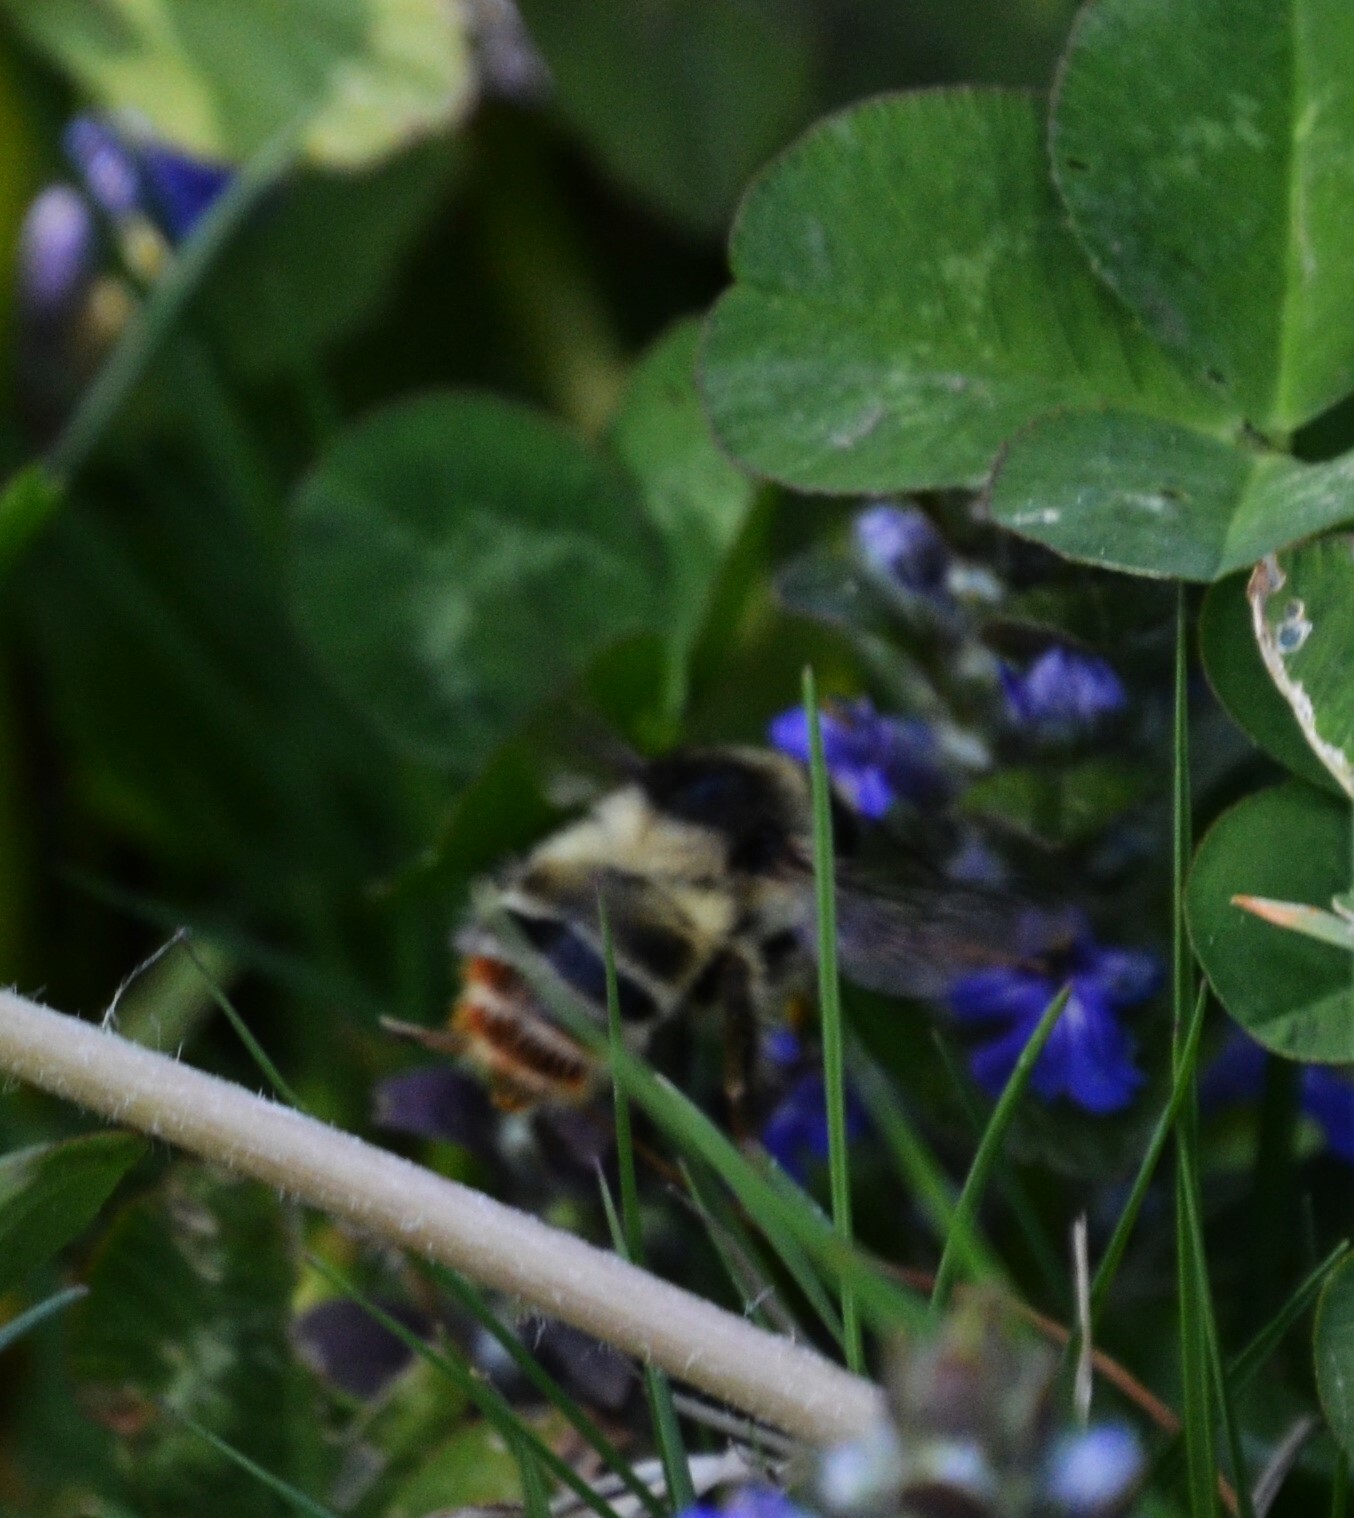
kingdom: Animalia
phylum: Arthropoda
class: Insecta
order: Hymenoptera
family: Apidae
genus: Bombus
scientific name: Bombus sylvarum
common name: Shrill carder bee
